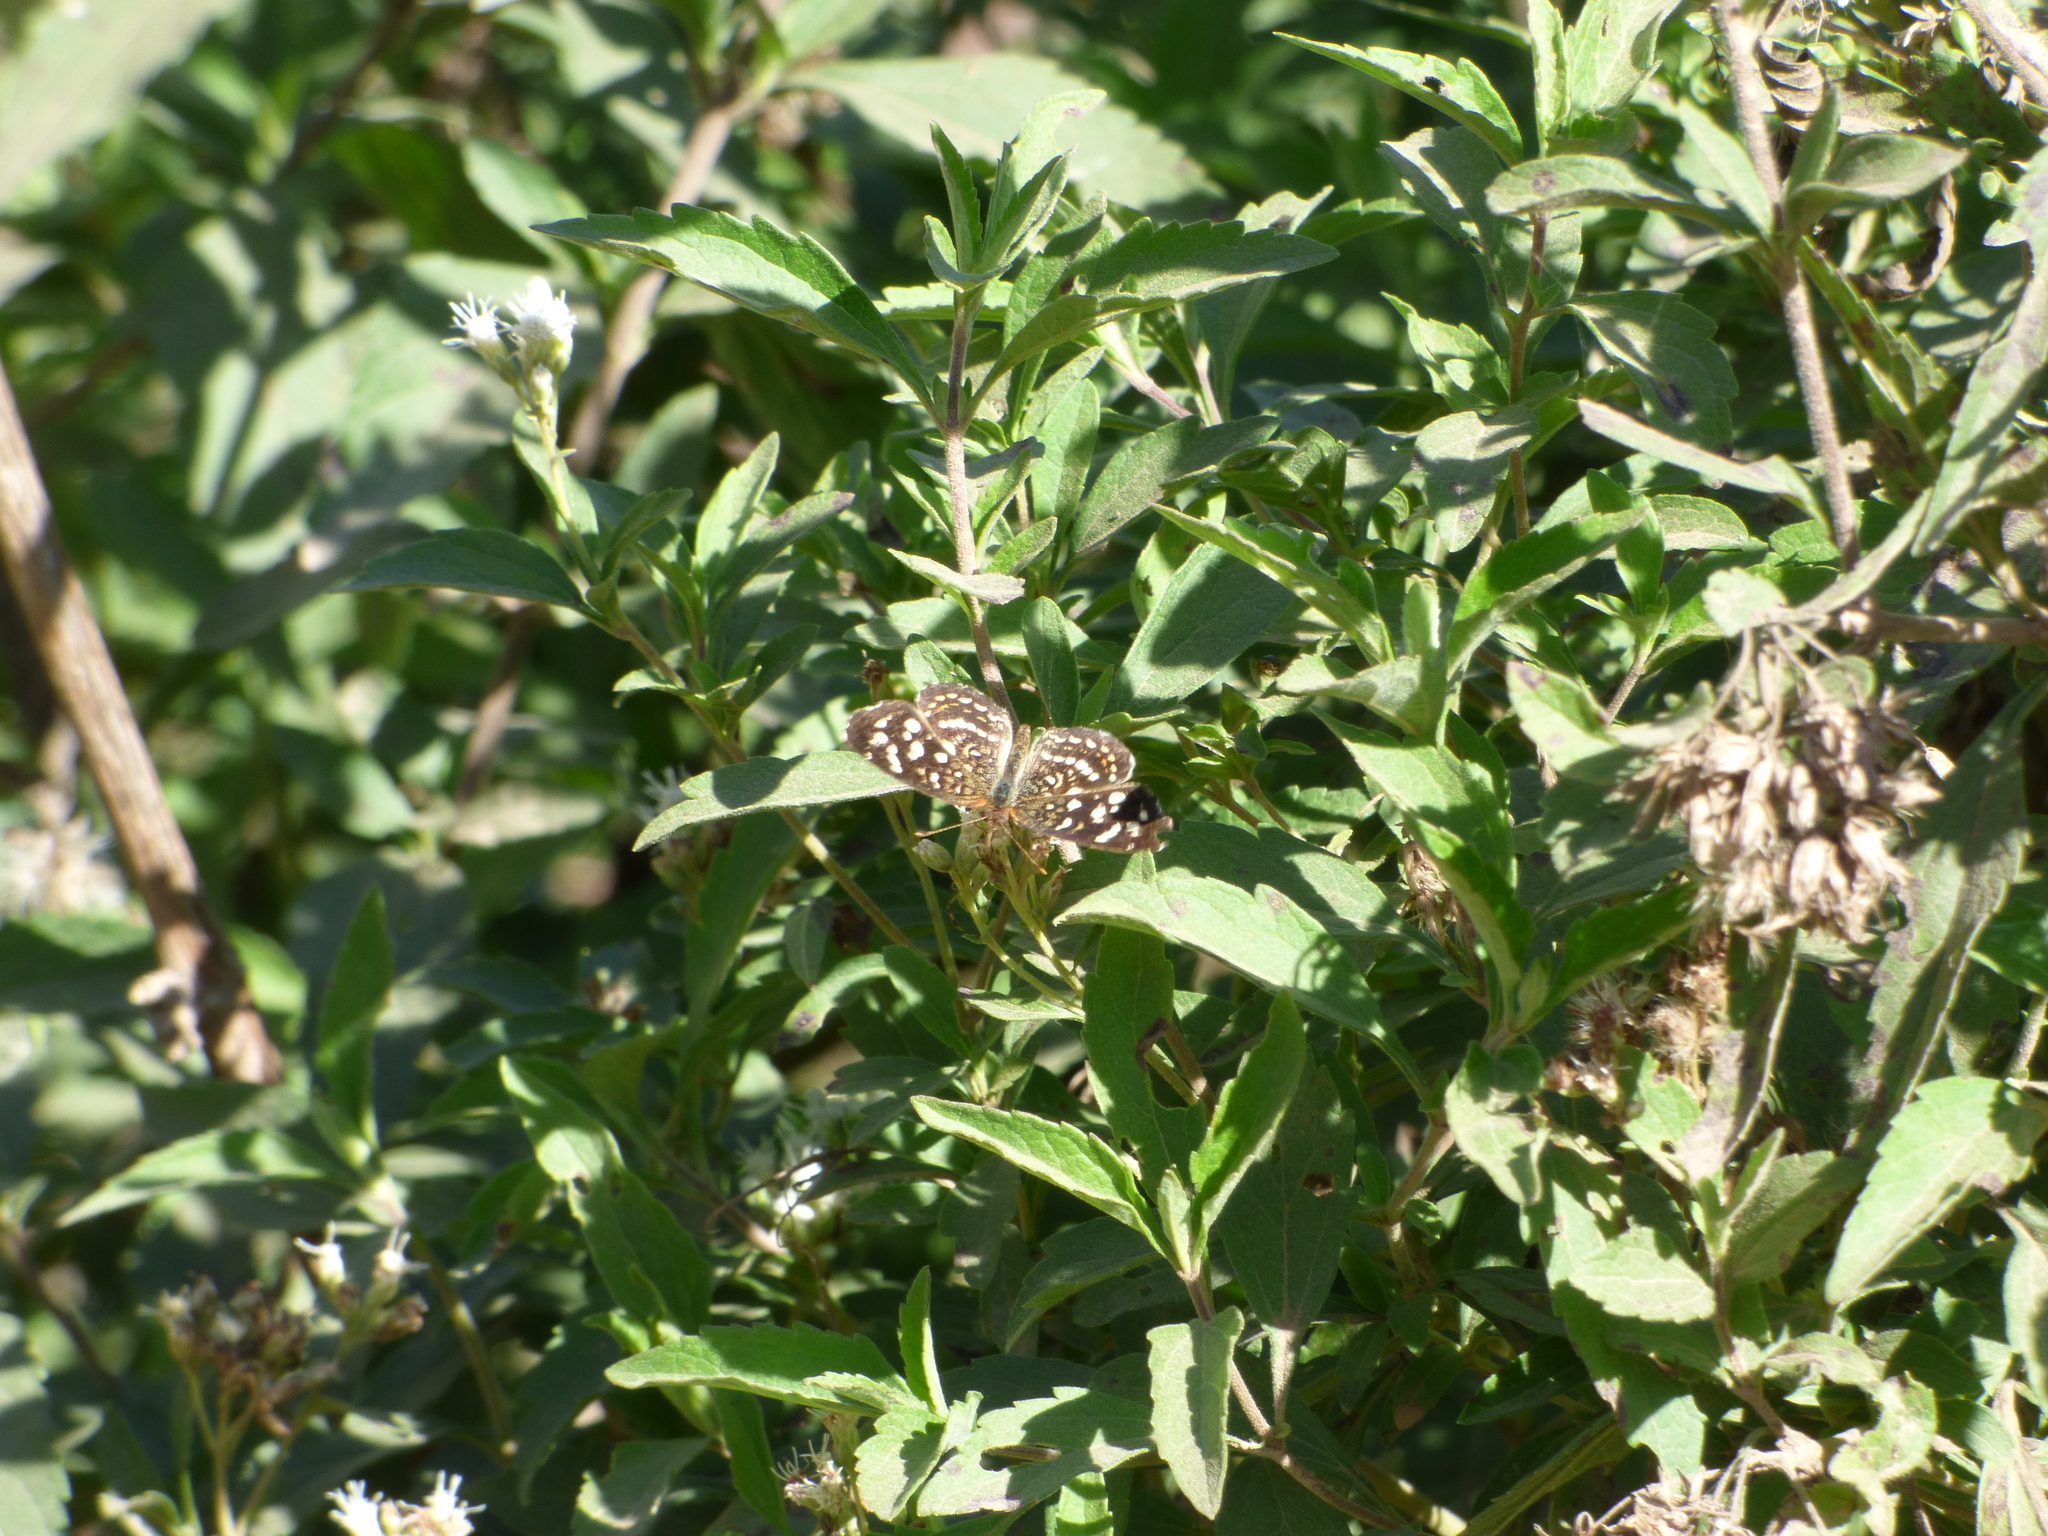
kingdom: Animalia
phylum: Arthropoda
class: Insecta
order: Lepidoptera
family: Nymphalidae
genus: Anthanassa
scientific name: Anthanassa hermas
